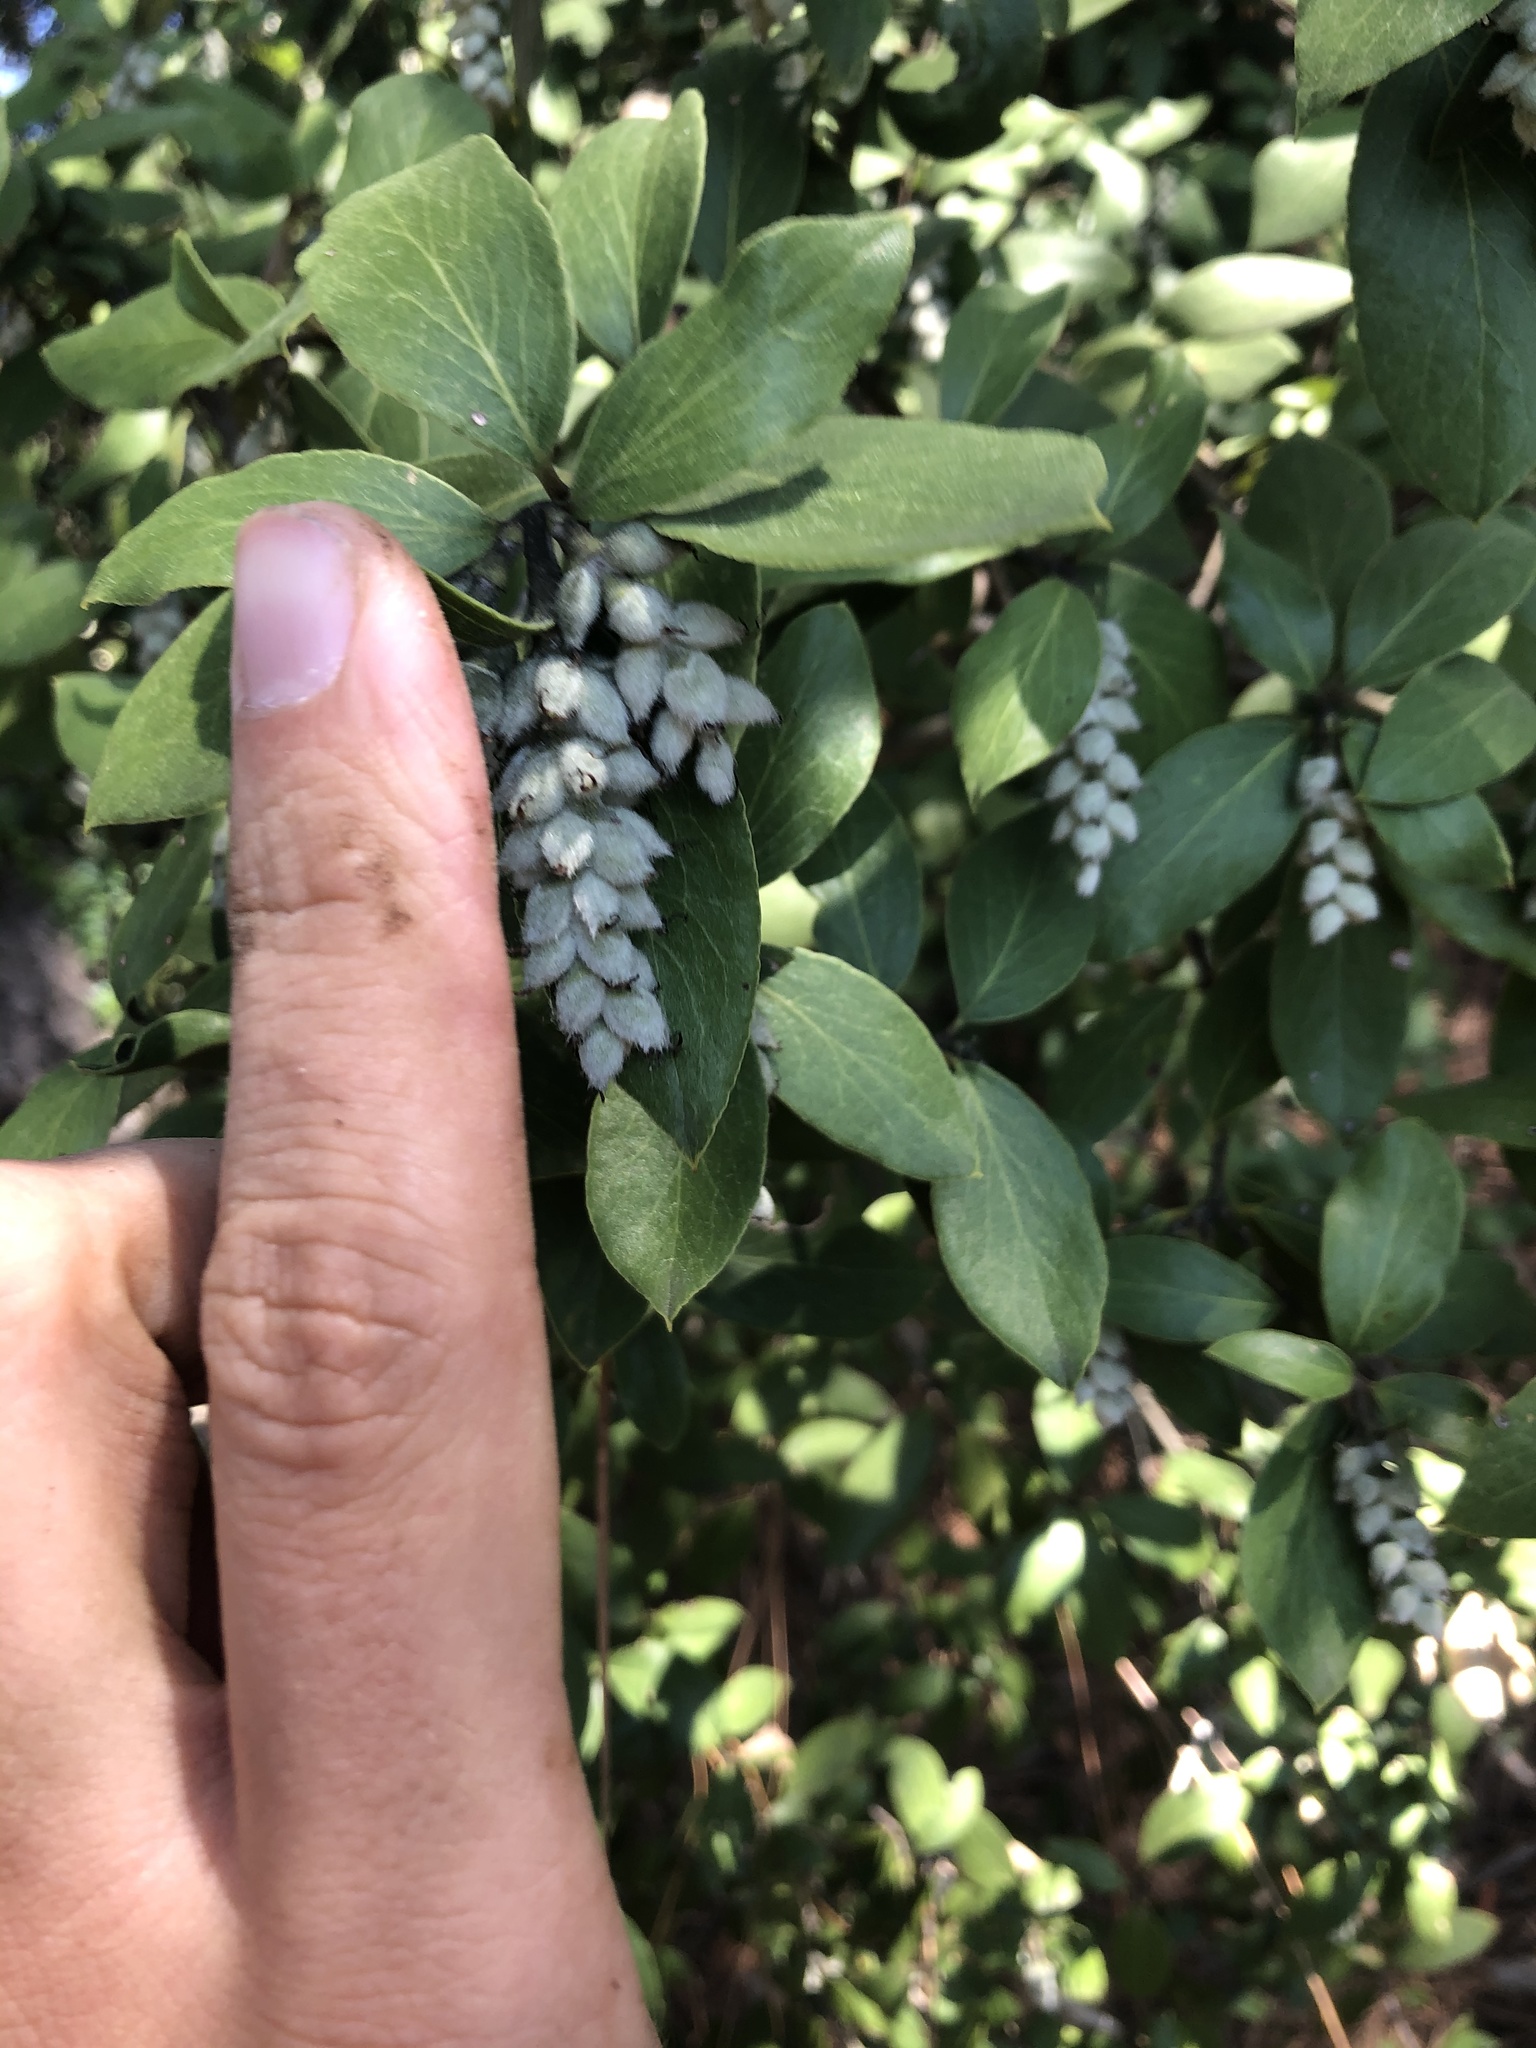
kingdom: Plantae
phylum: Tracheophyta
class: Magnoliopsida
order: Garryales
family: Garryaceae
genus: Garrya
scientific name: Garrya veatchii
